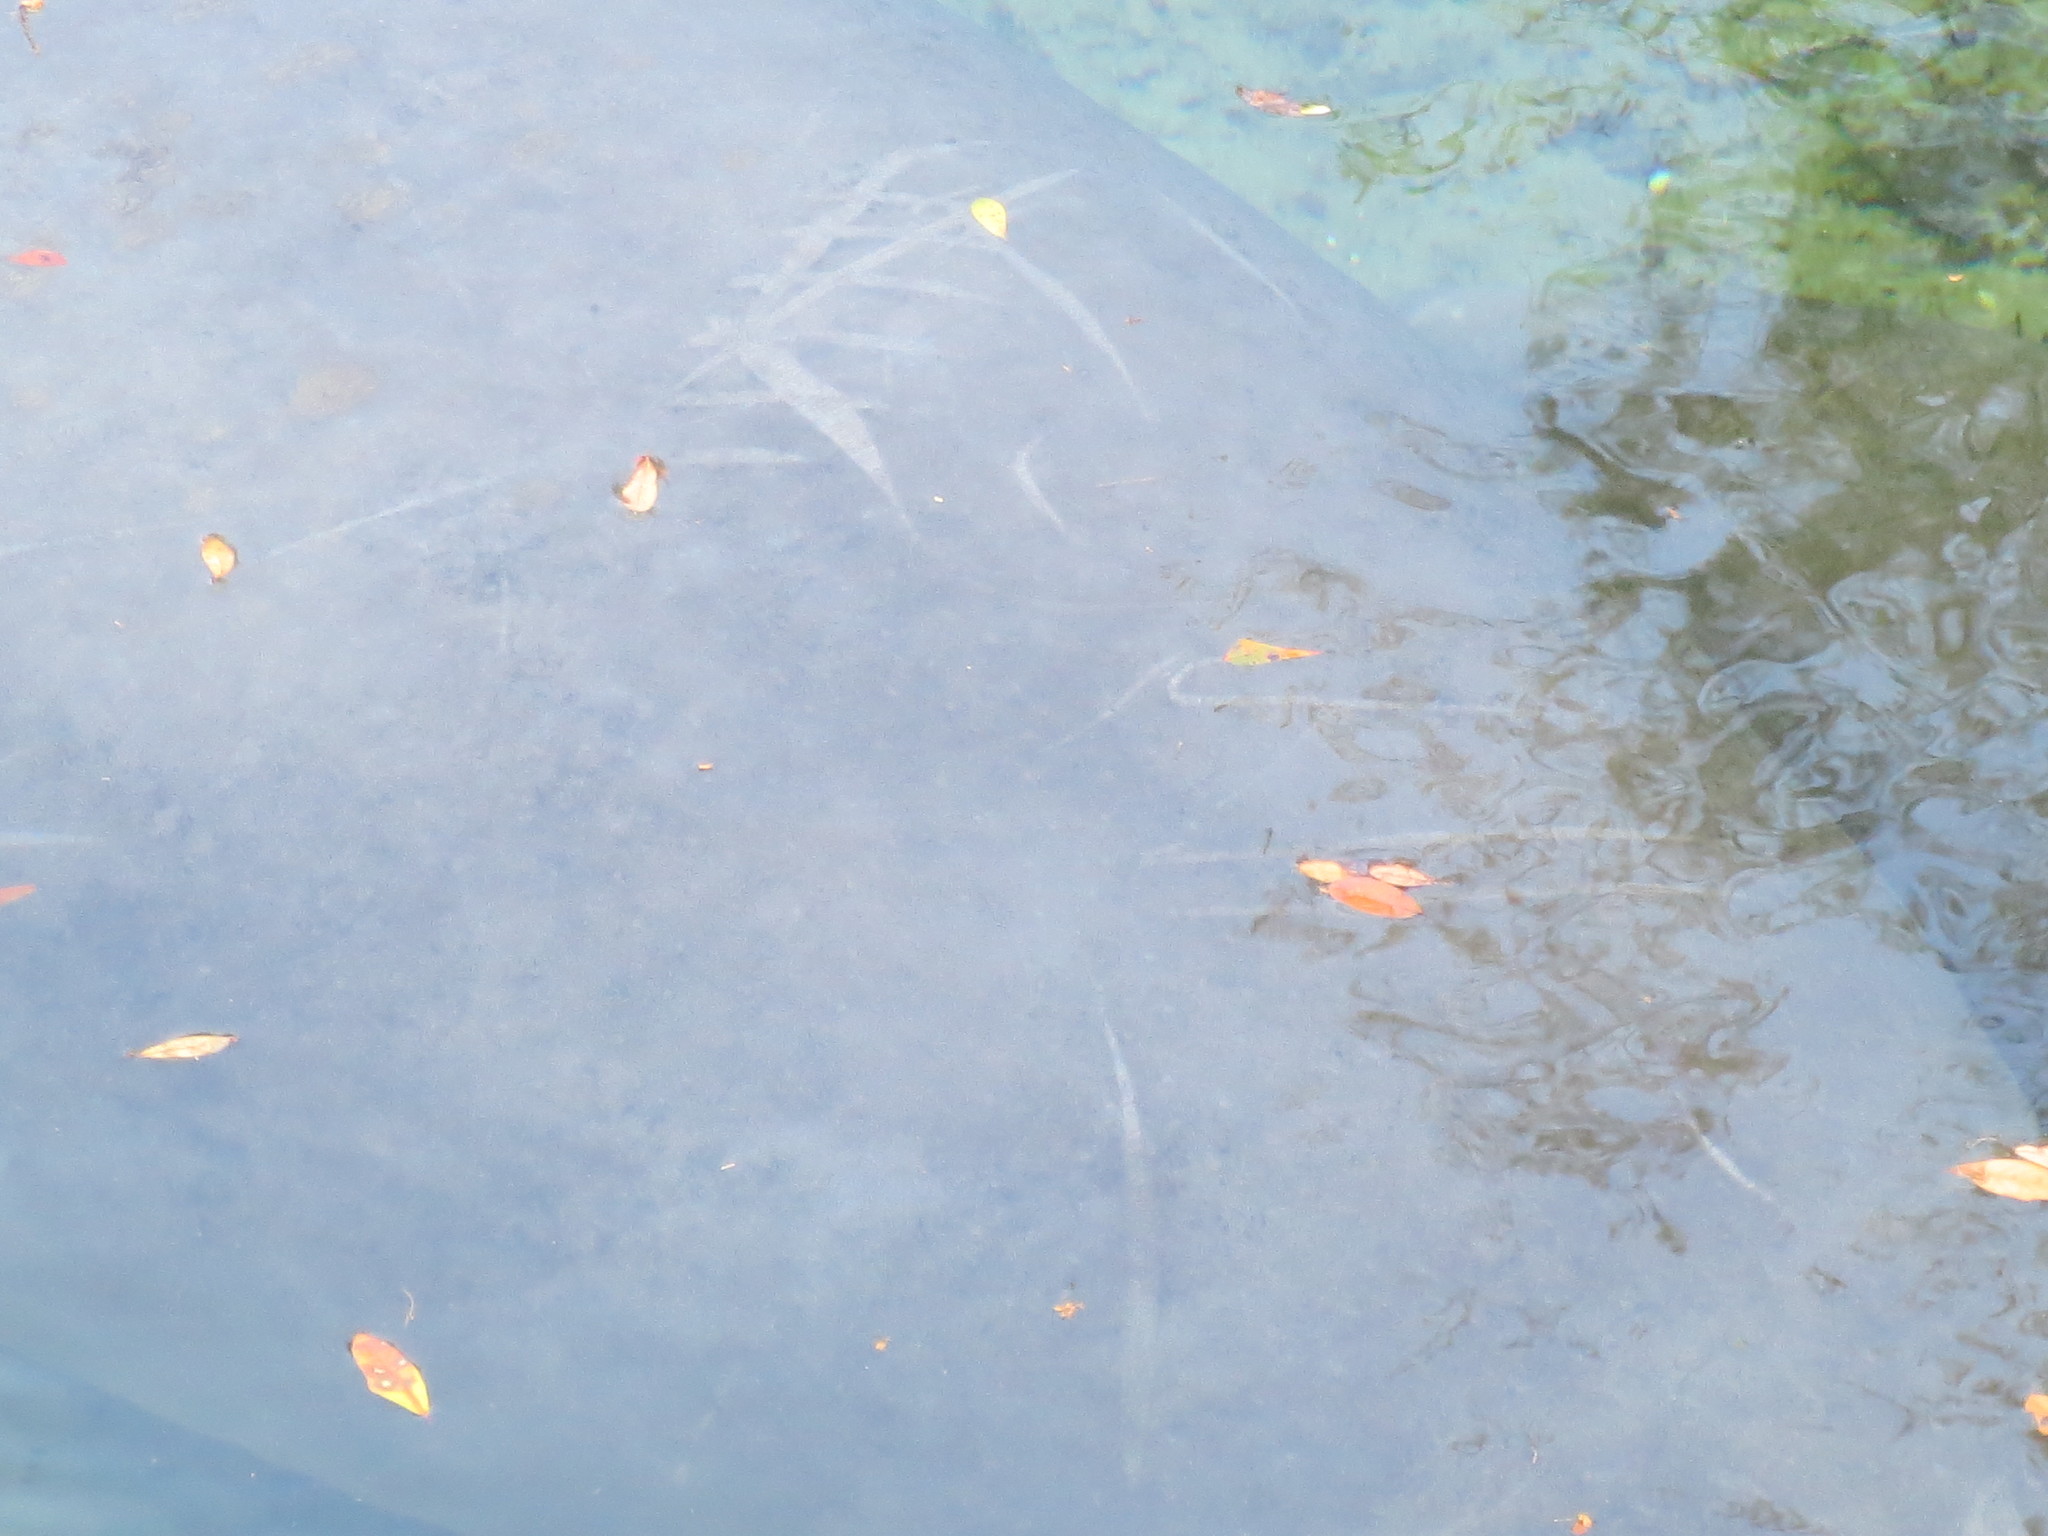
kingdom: Animalia
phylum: Chordata
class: Mammalia
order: Sirenia
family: Trichechidae
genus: Trichechus
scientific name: Trichechus manatus
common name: West indian manatee
